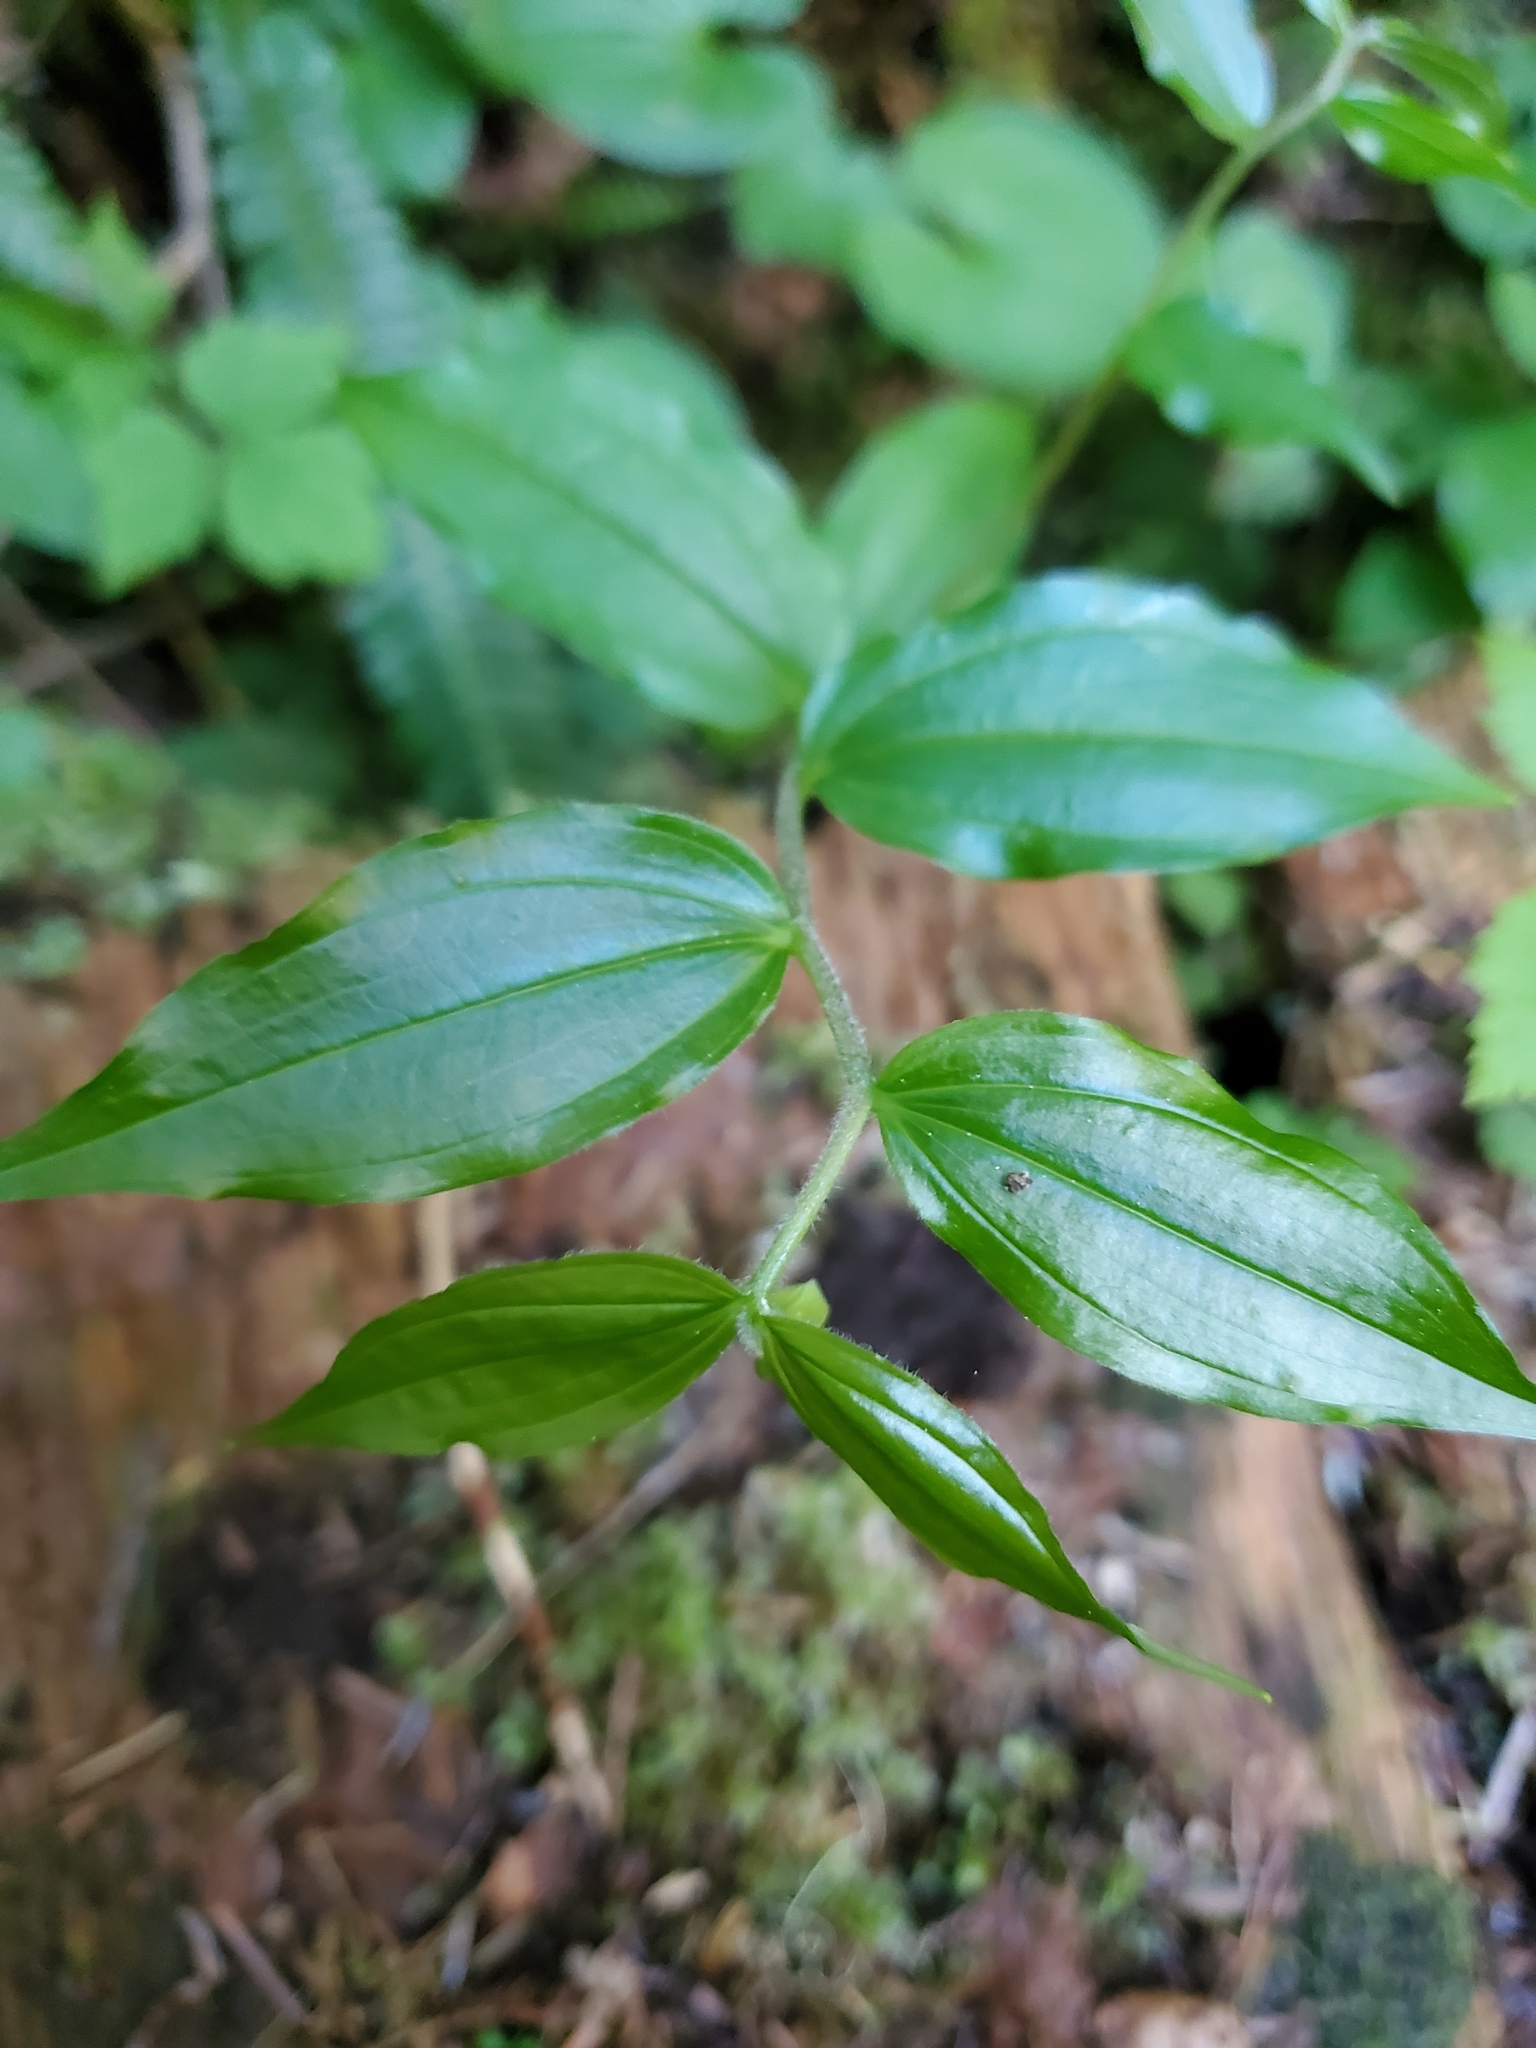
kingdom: Plantae
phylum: Tracheophyta
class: Liliopsida
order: Liliales
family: Liliaceae
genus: Prosartes
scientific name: Prosartes smithii
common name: Fairy-lantern
